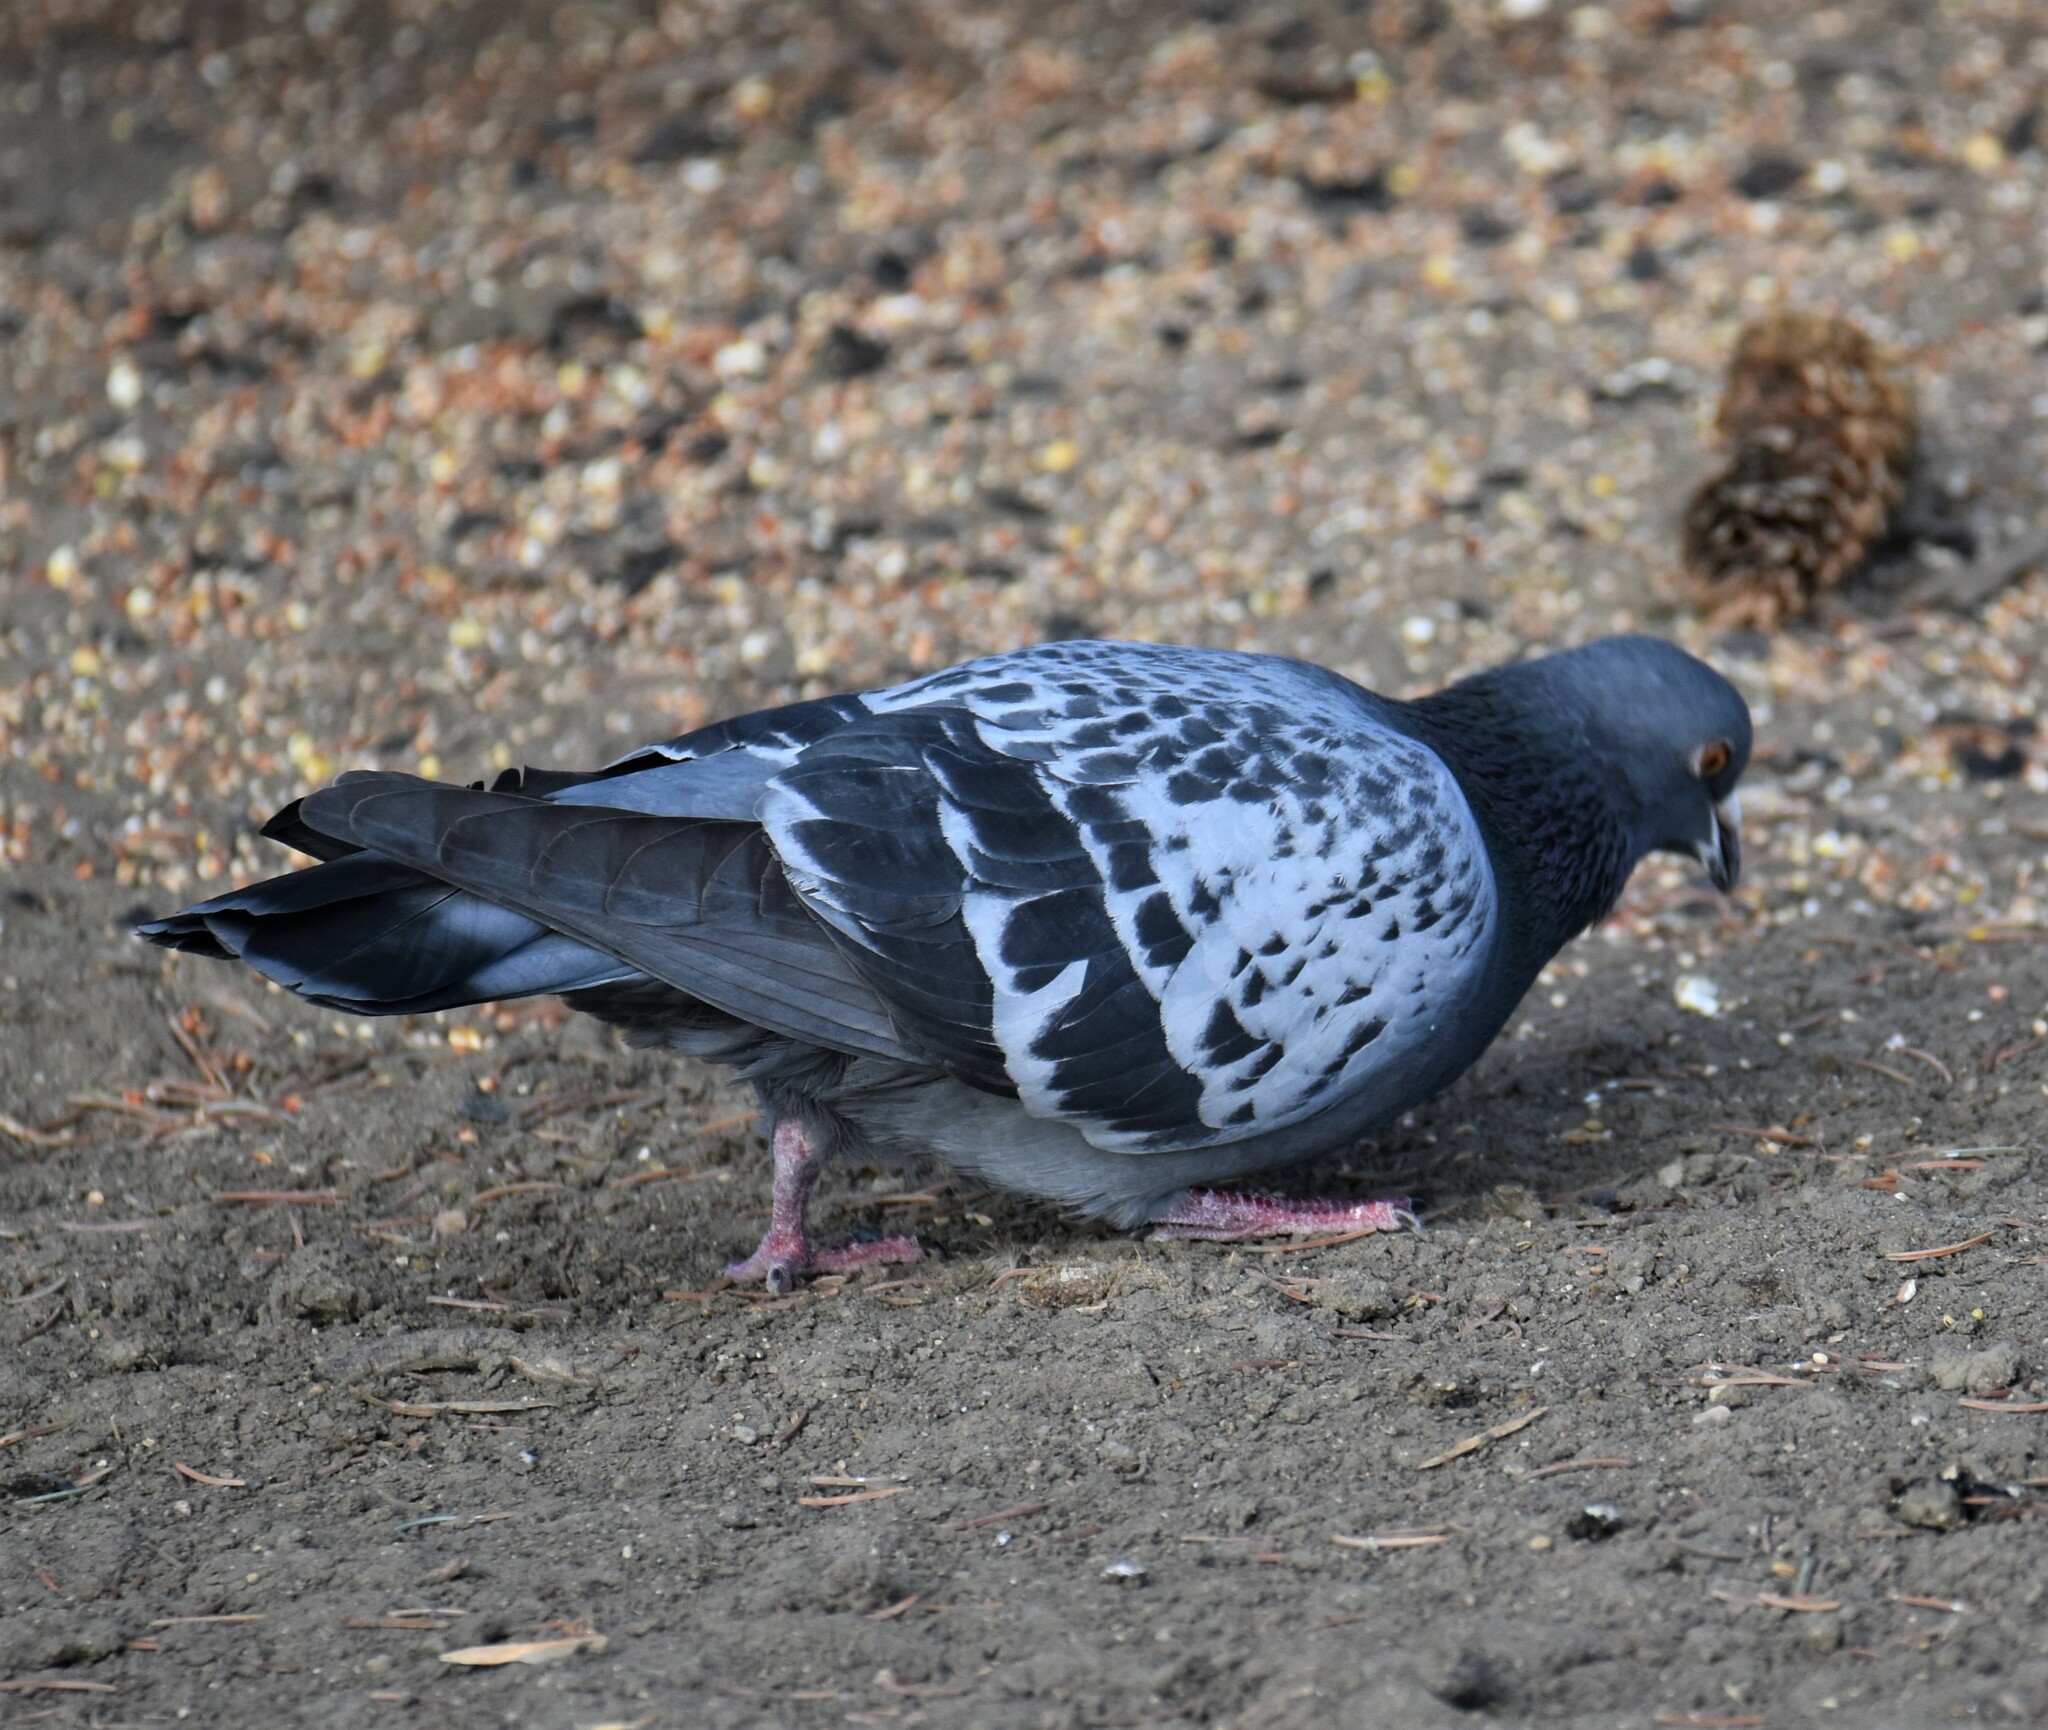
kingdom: Animalia
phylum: Chordata
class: Aves
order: Columbiformes
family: Columbidae
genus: Columba
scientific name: Columba livia
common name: Rock pigeon
